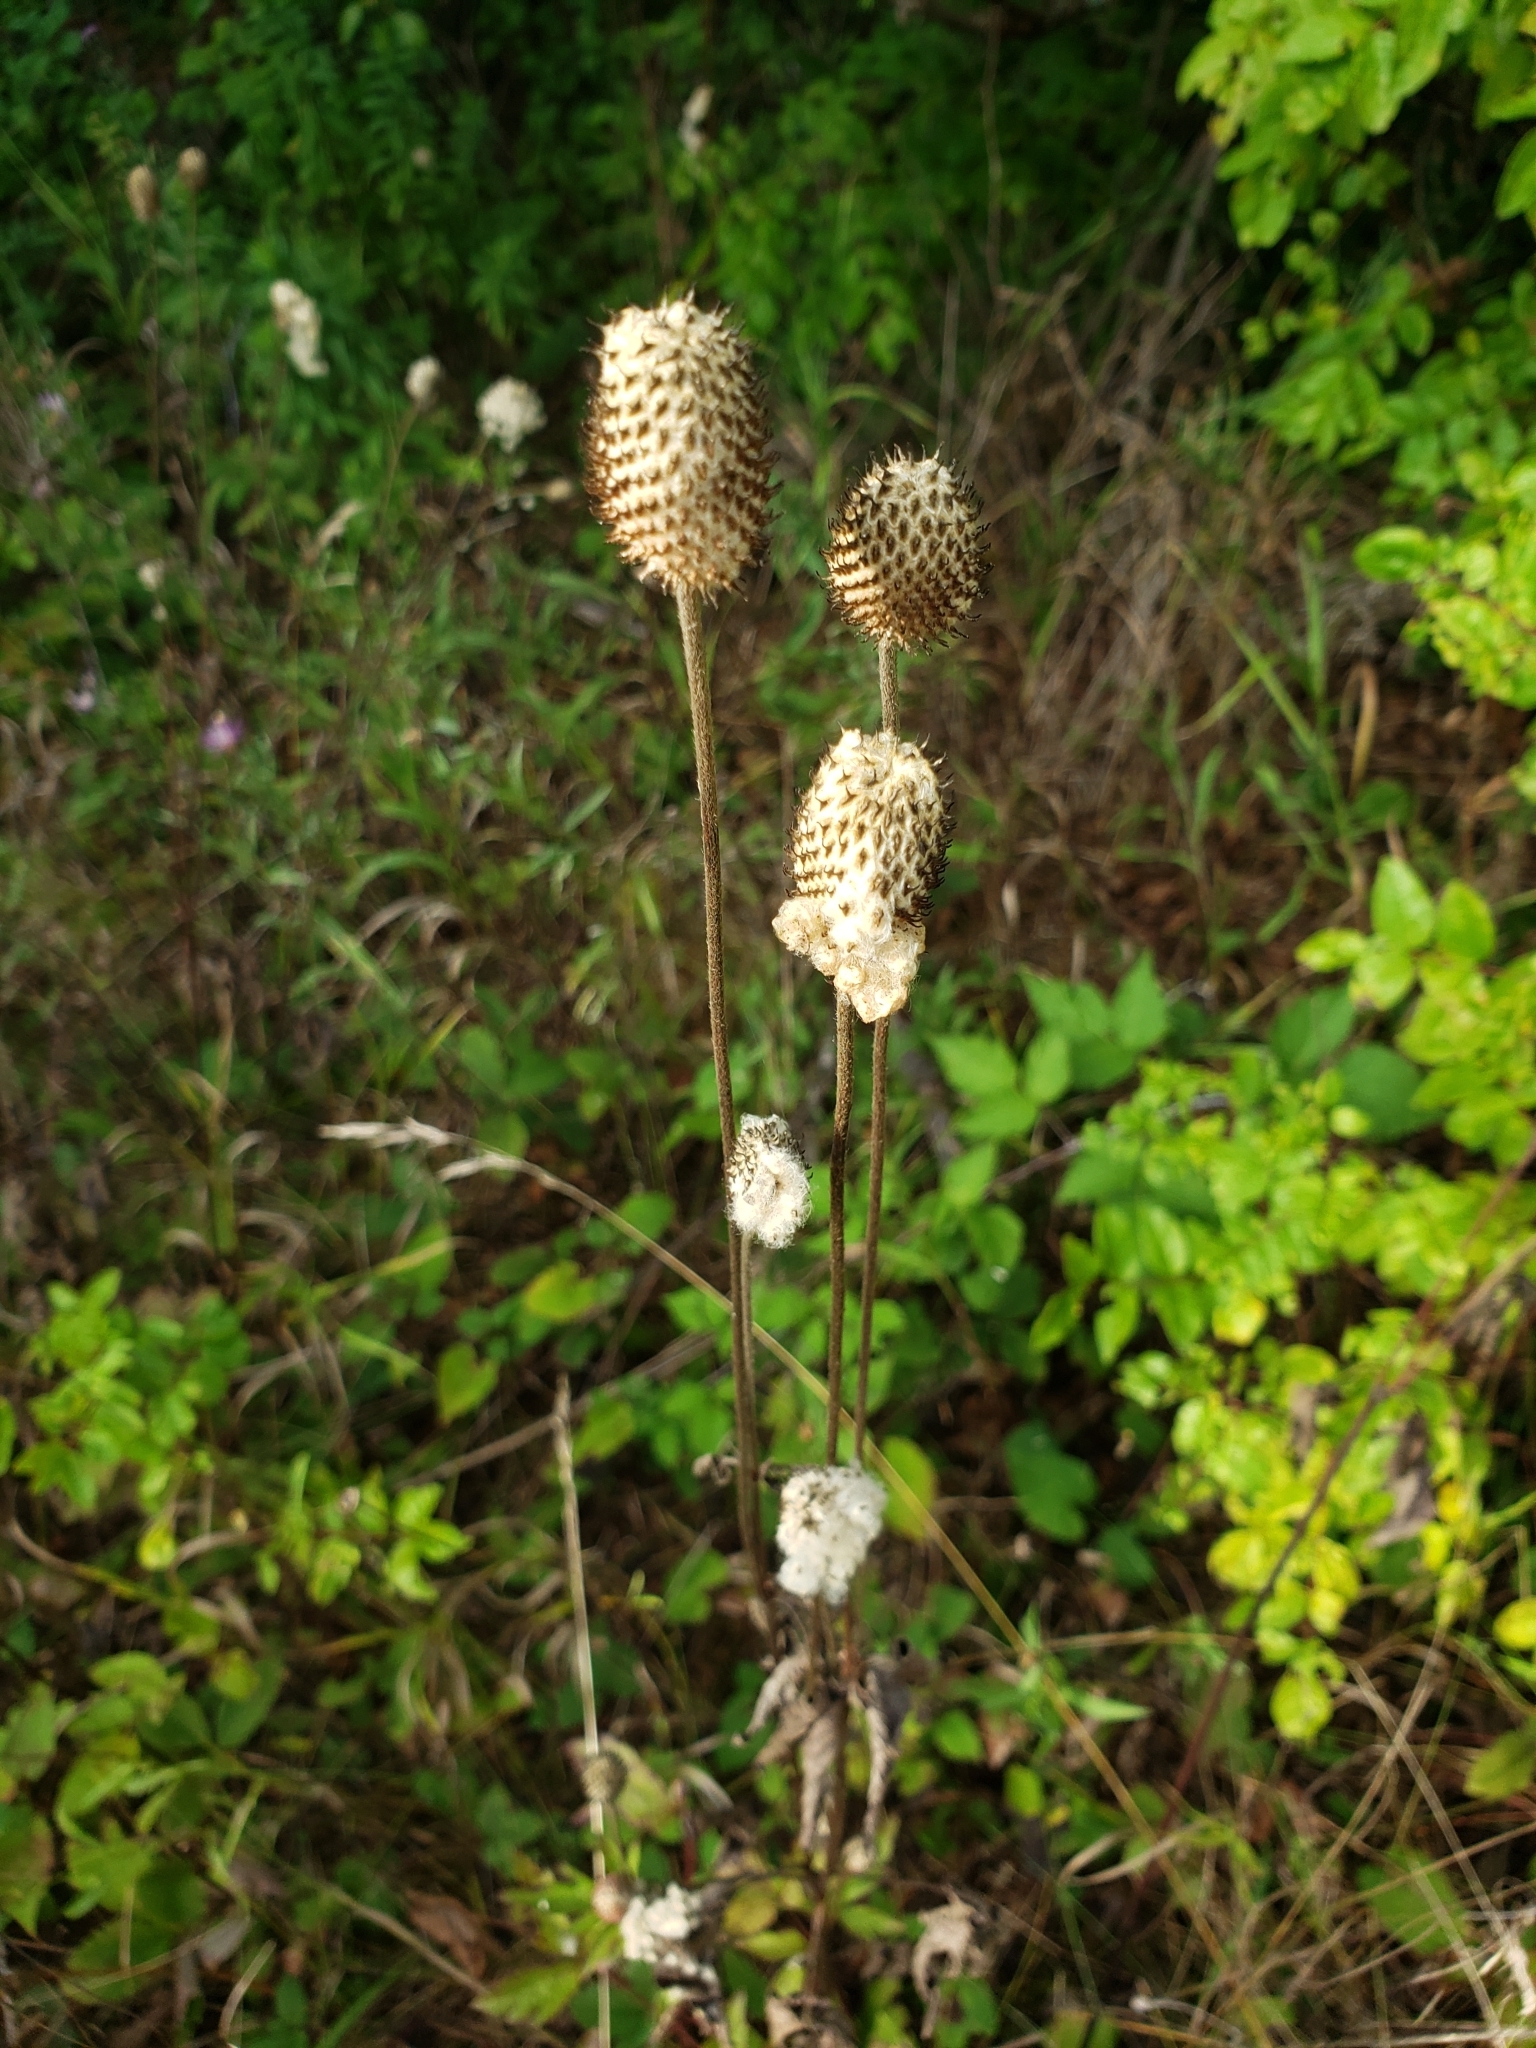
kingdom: Plantae
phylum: Tracheophyta
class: Magnoliopsida
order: Ranunculales
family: Ranunculaceae
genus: Anemone
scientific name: Anemone virginiana
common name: Tall anemone
